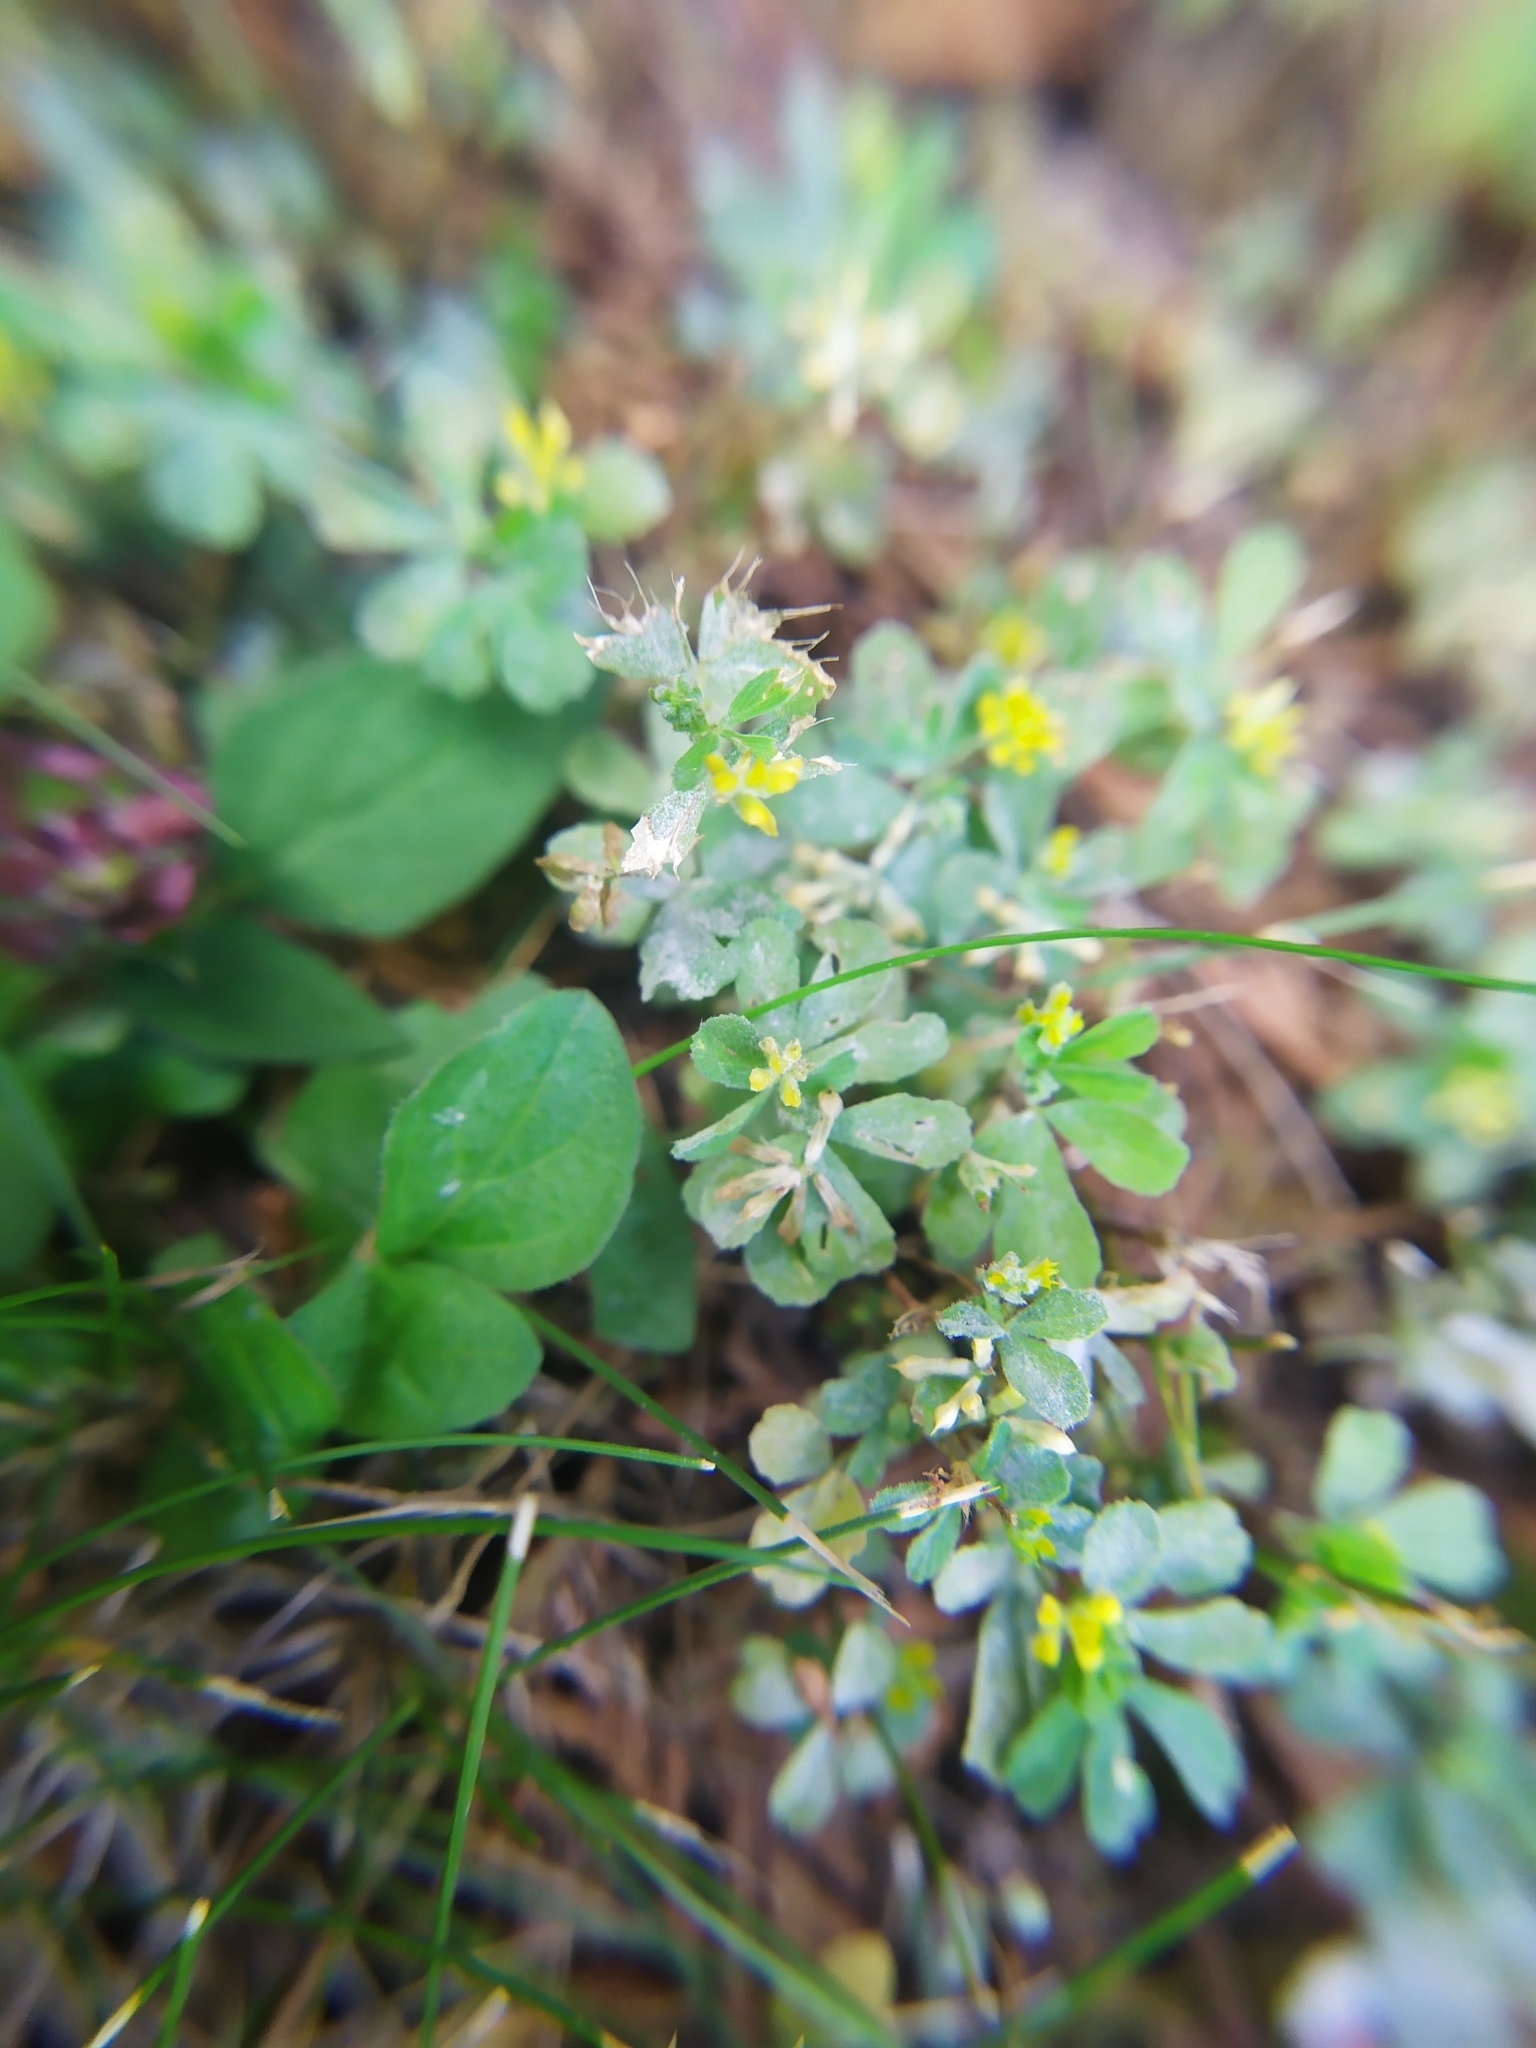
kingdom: Plantae
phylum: Tracheophyta
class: Magnoliopsida
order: Fabales
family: Fabaceae
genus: Trifolium
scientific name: Trifolium dubium
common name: Suckling clover
